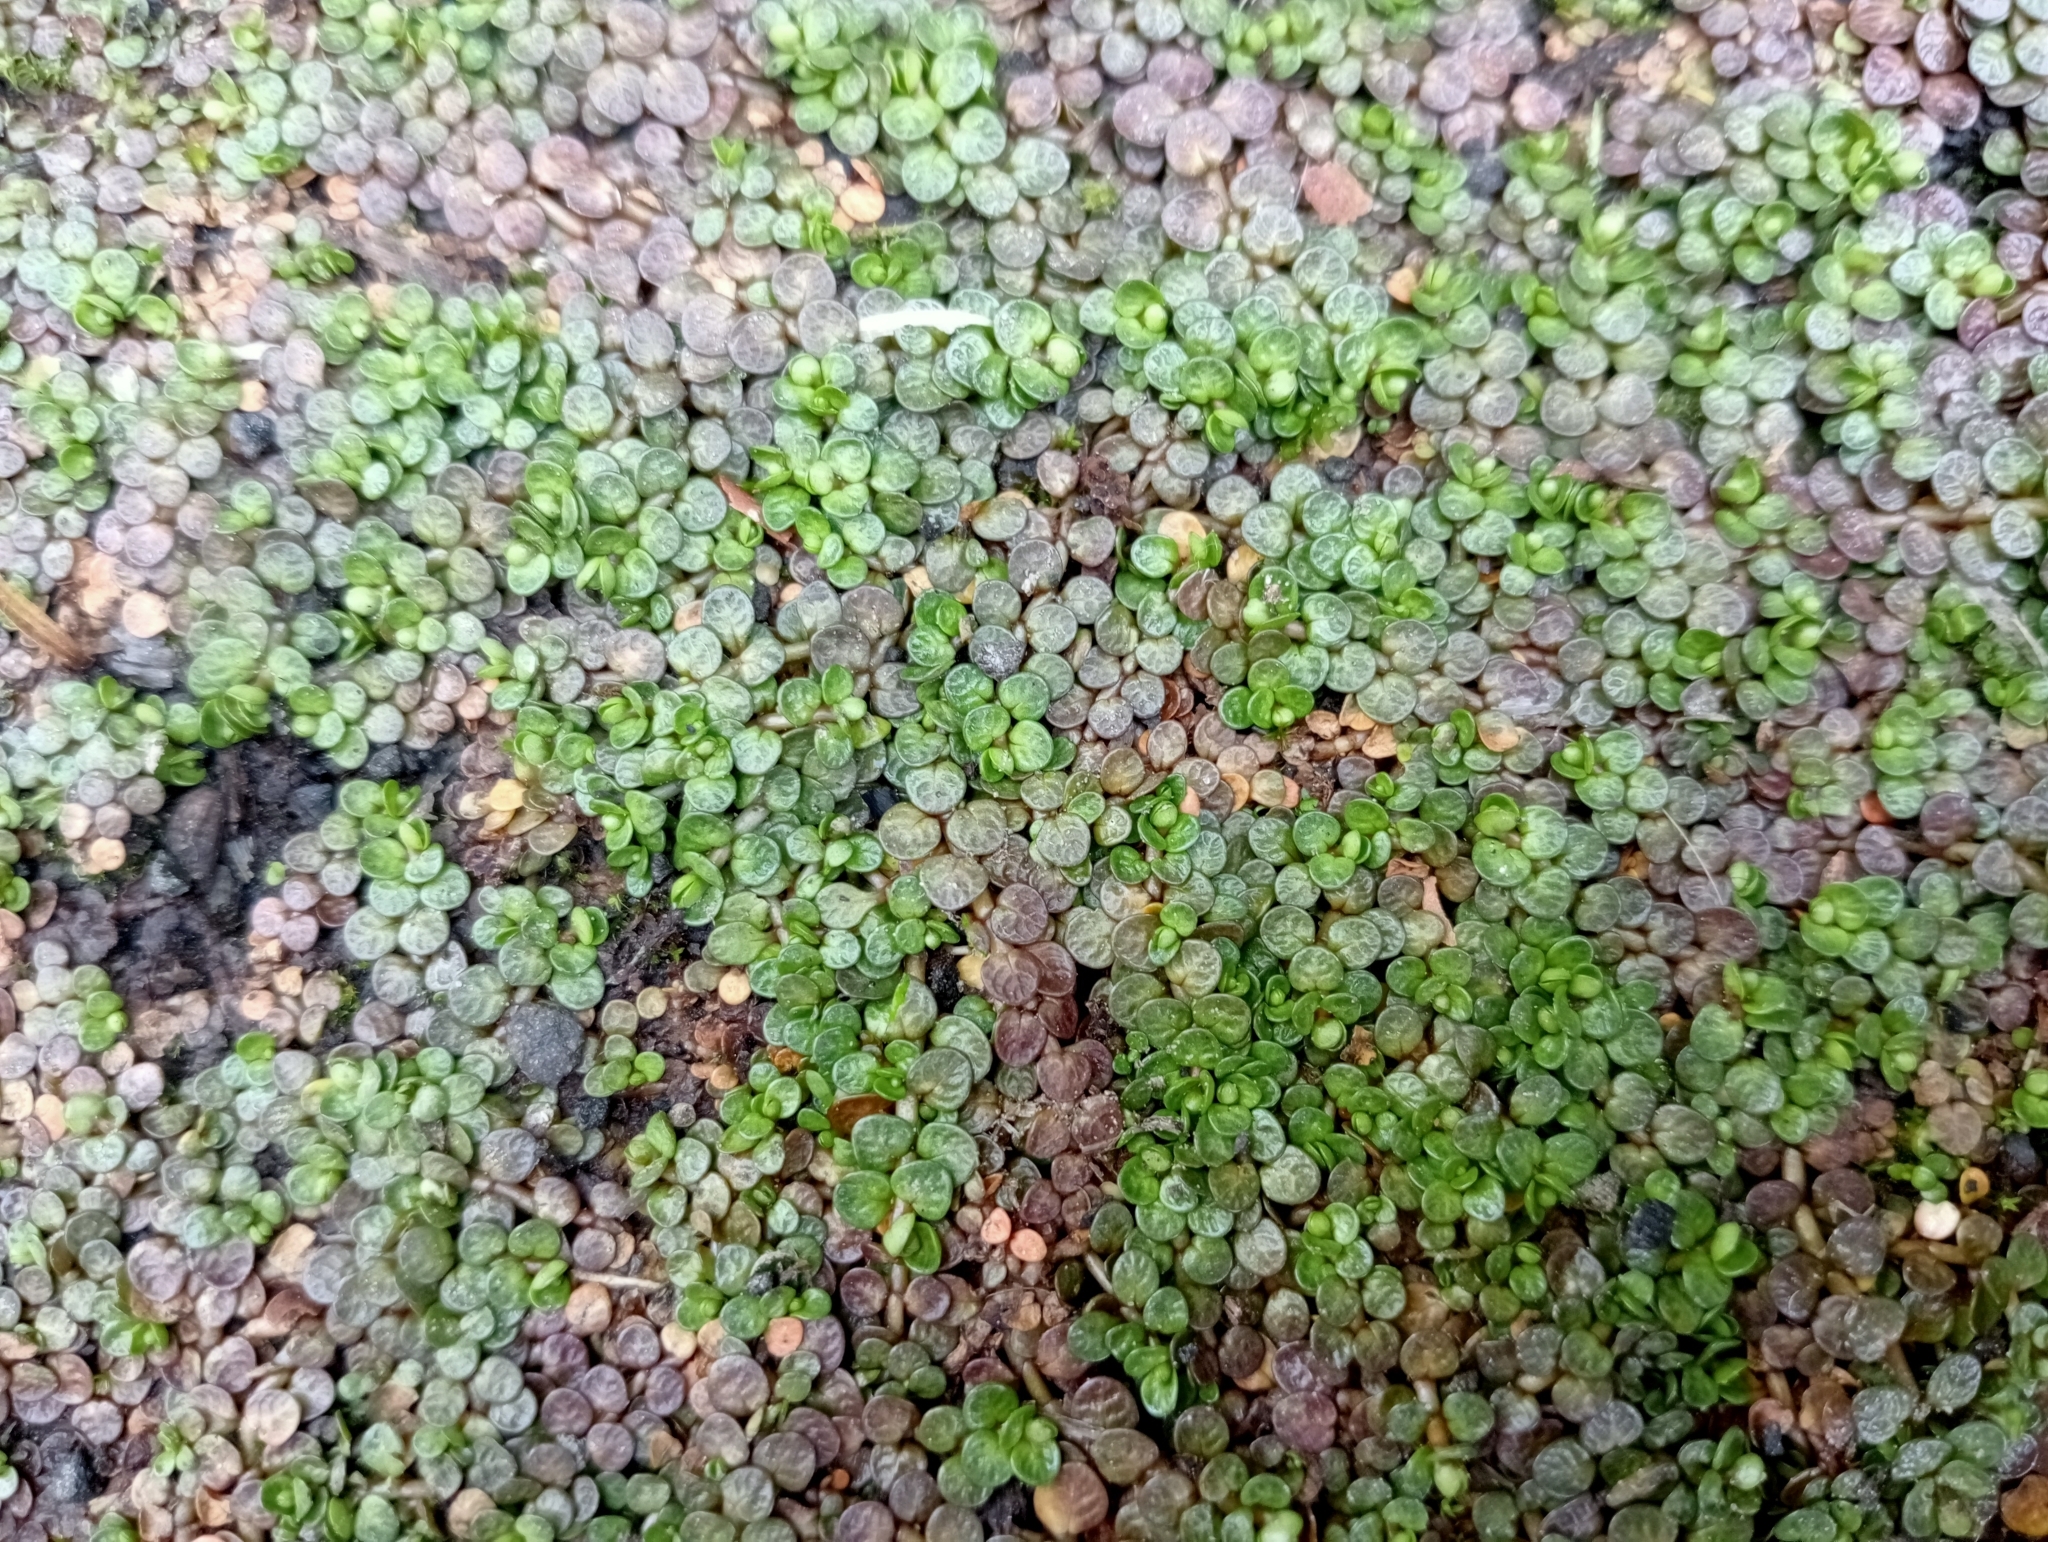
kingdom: Plantae
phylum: Tracheophyta
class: Magnoliopsida
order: Myrtales
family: Onagraceae
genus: Epilobium
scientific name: Epilobium komarovianum
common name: Bronzy willowherb
